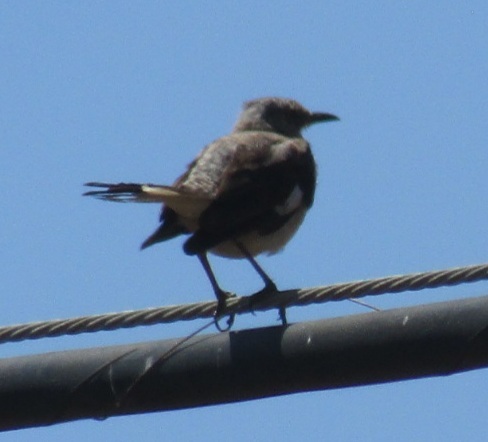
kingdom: Animalia
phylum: Chordata
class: Aves
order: Passeriformes
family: Mimidae
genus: Mimus
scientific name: Mimus polyglottos
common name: Northern mockingbird
